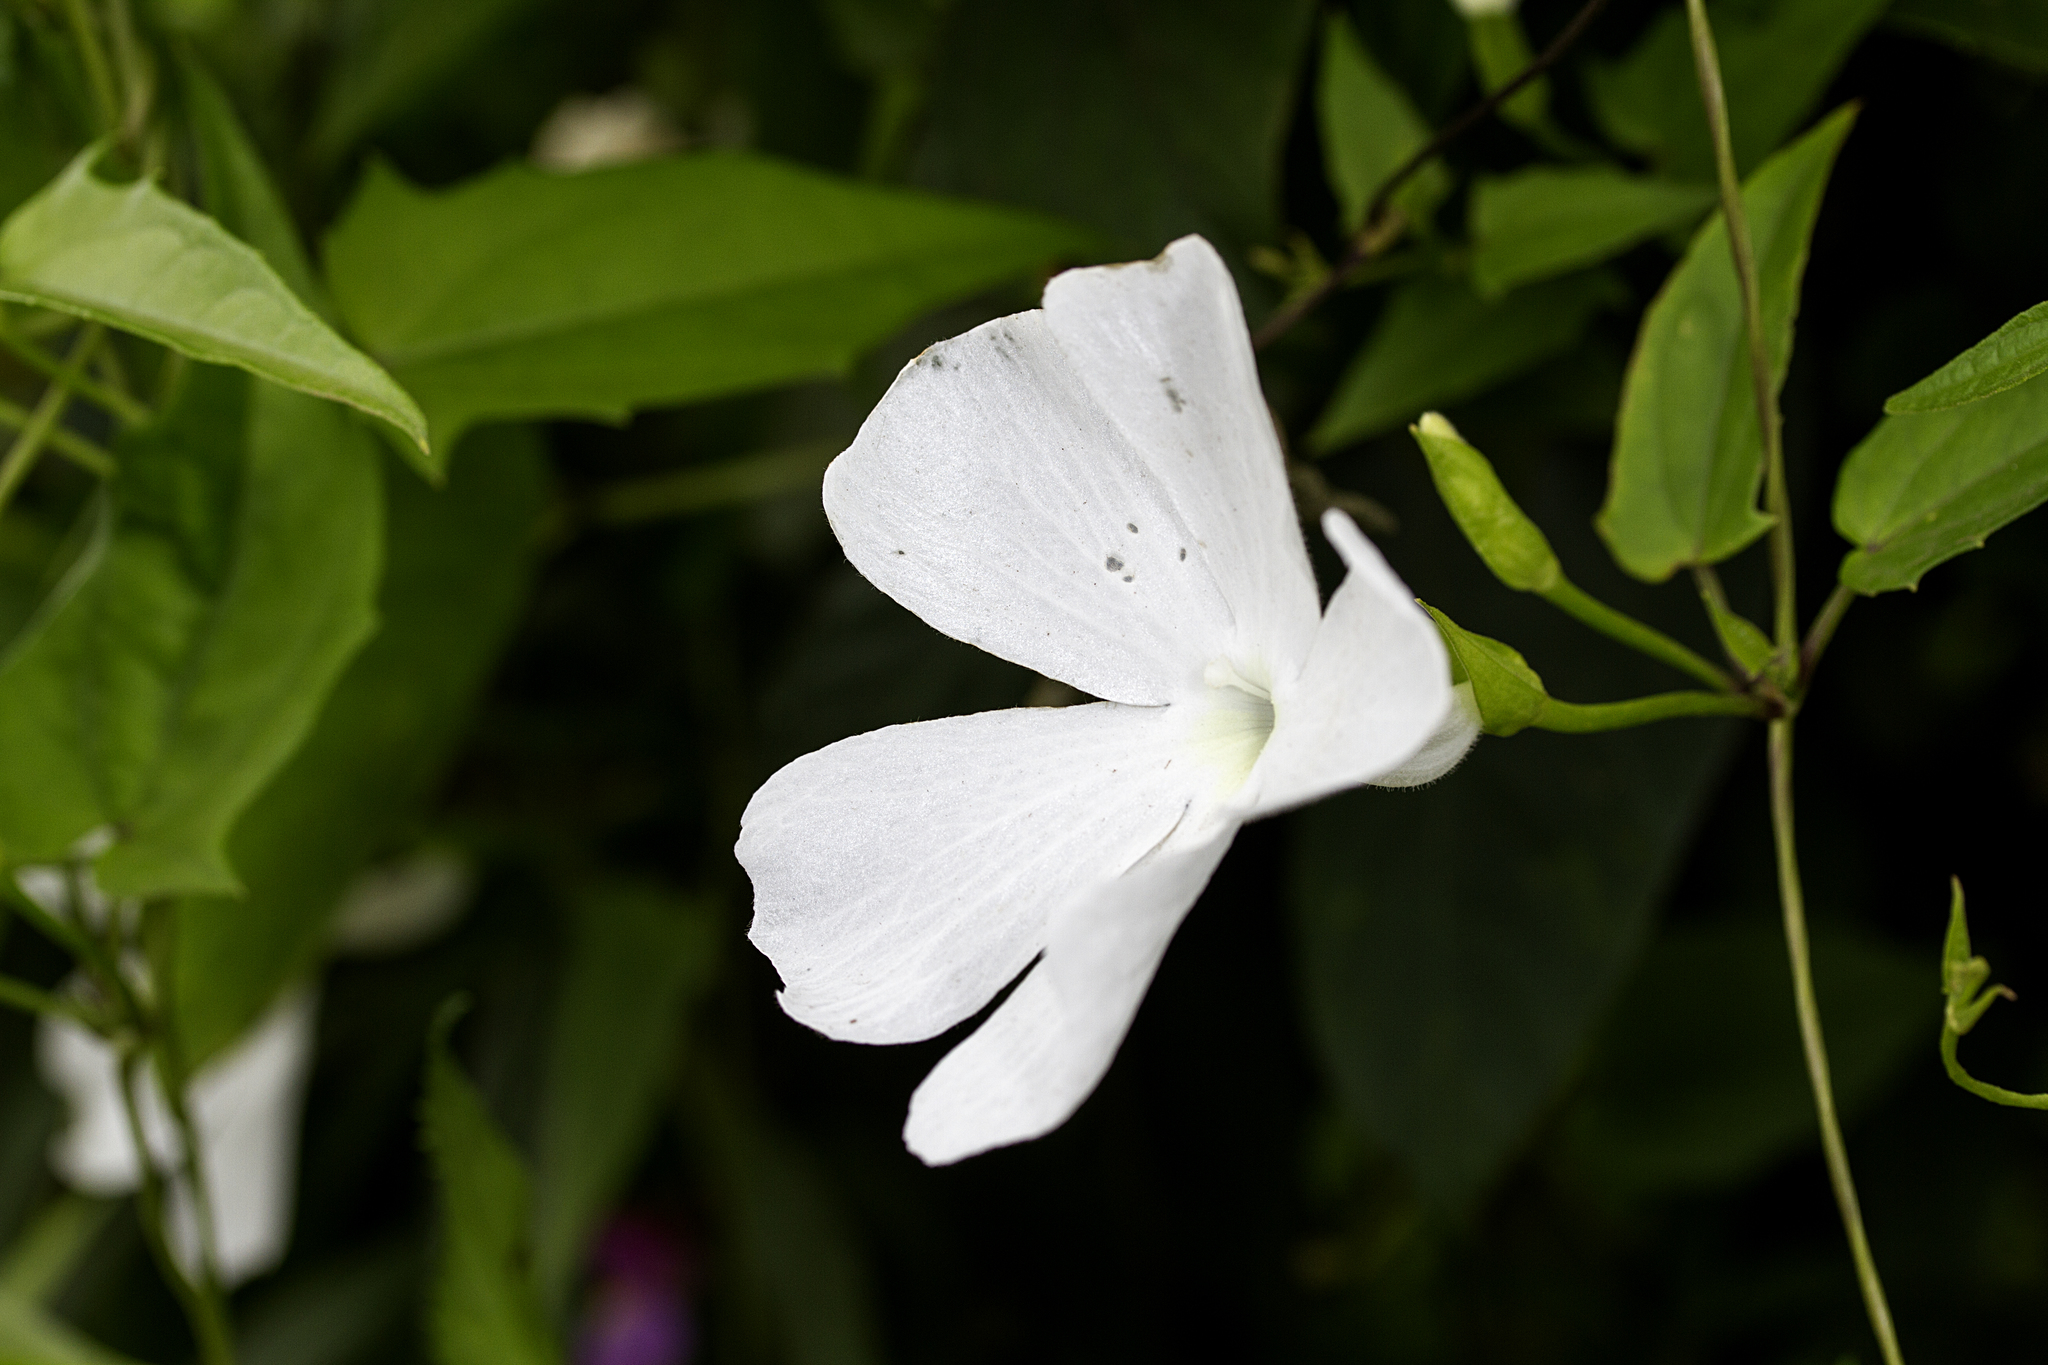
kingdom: Plantae
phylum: Tracheophyta
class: Magnoliopsida
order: Lamiales
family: Acanthaceae
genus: Thunbergia
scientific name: Thunbergia fragrans
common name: Whitelady
